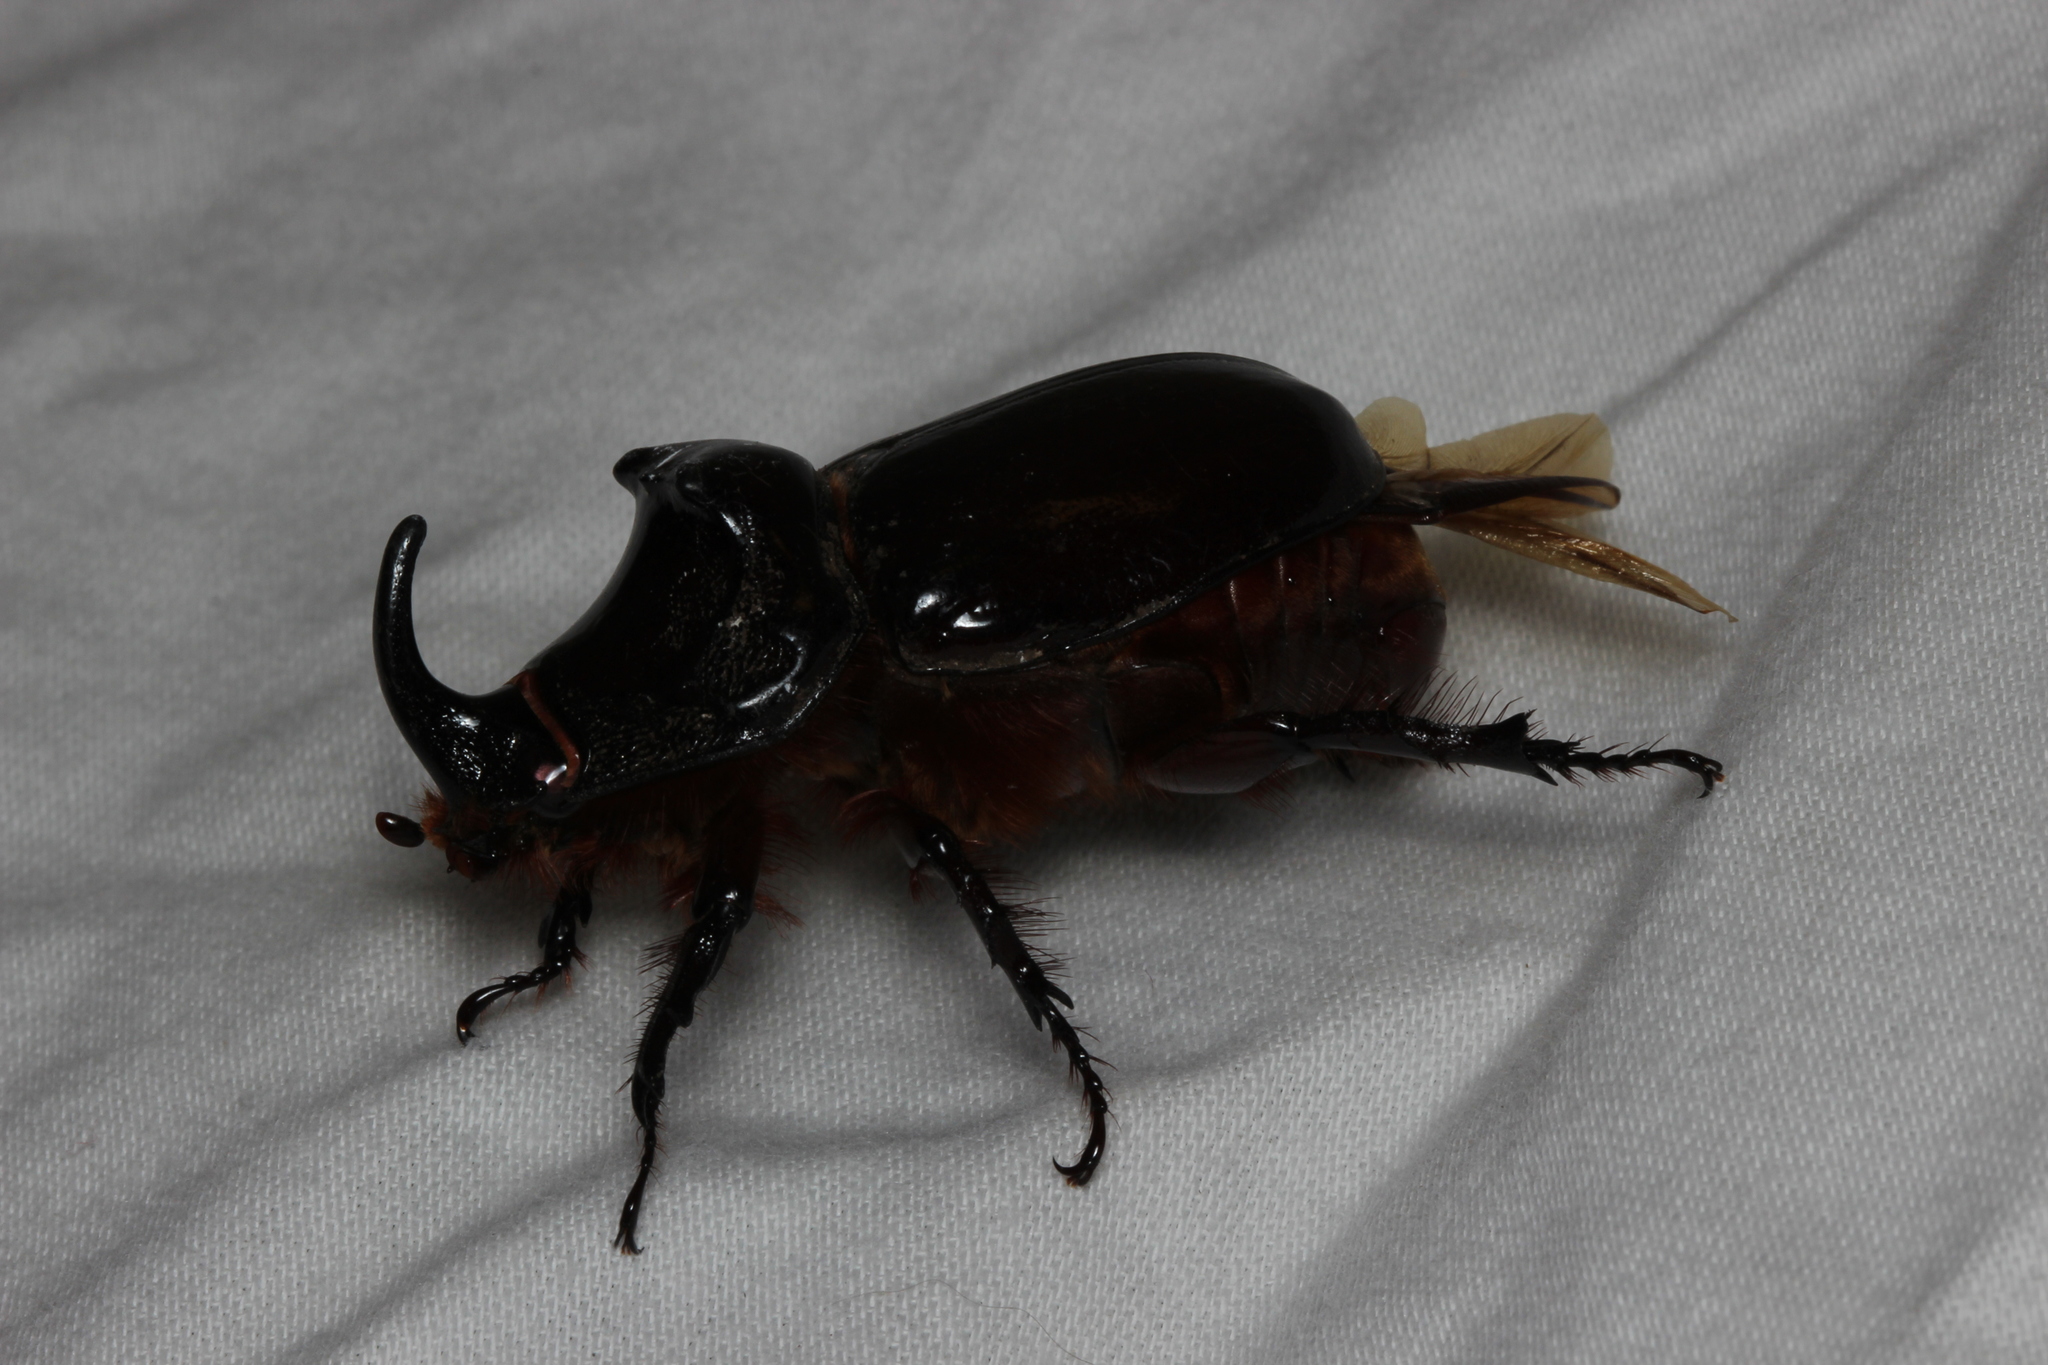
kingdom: Animalia
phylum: Arthropoda
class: Insecta
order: Coleoptera
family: Scarabaeidae
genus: Oryctes
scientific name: Oryctes nasicornis
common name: European rhinoceros beetle
